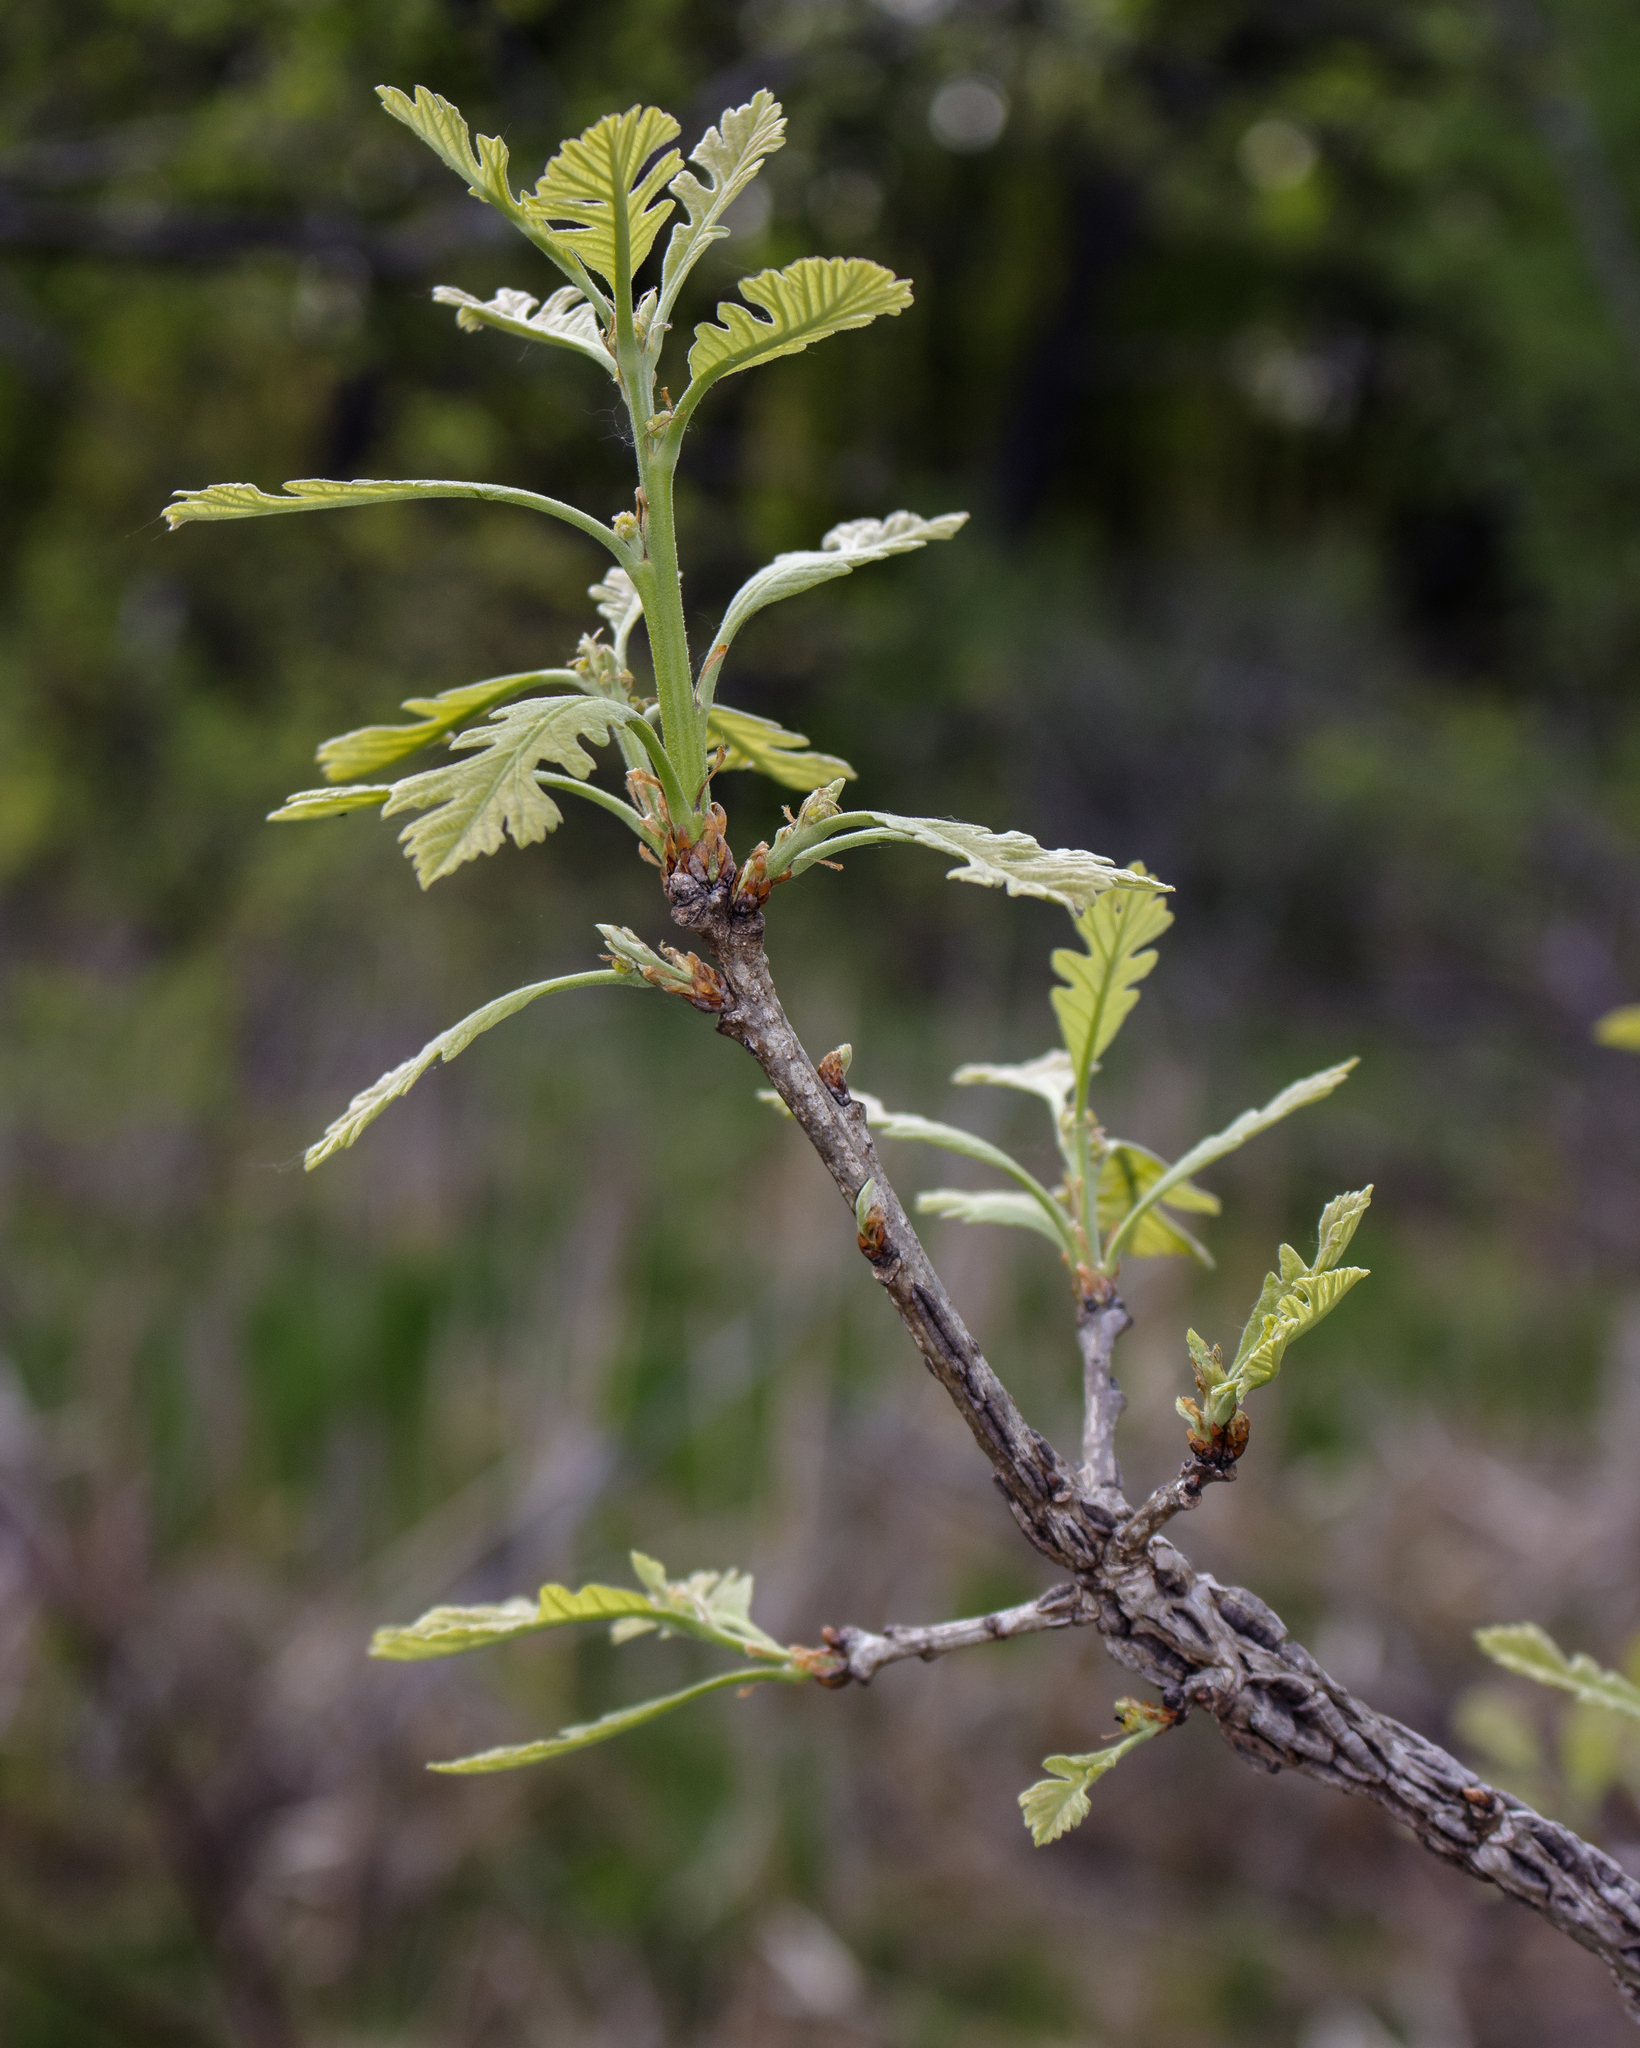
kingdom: Plantae
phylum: Tracheophyta
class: Magnoliopsida
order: Fagales
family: Fagaceae
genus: Quercus
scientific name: Quercus macrocarpa
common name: Bur oak
